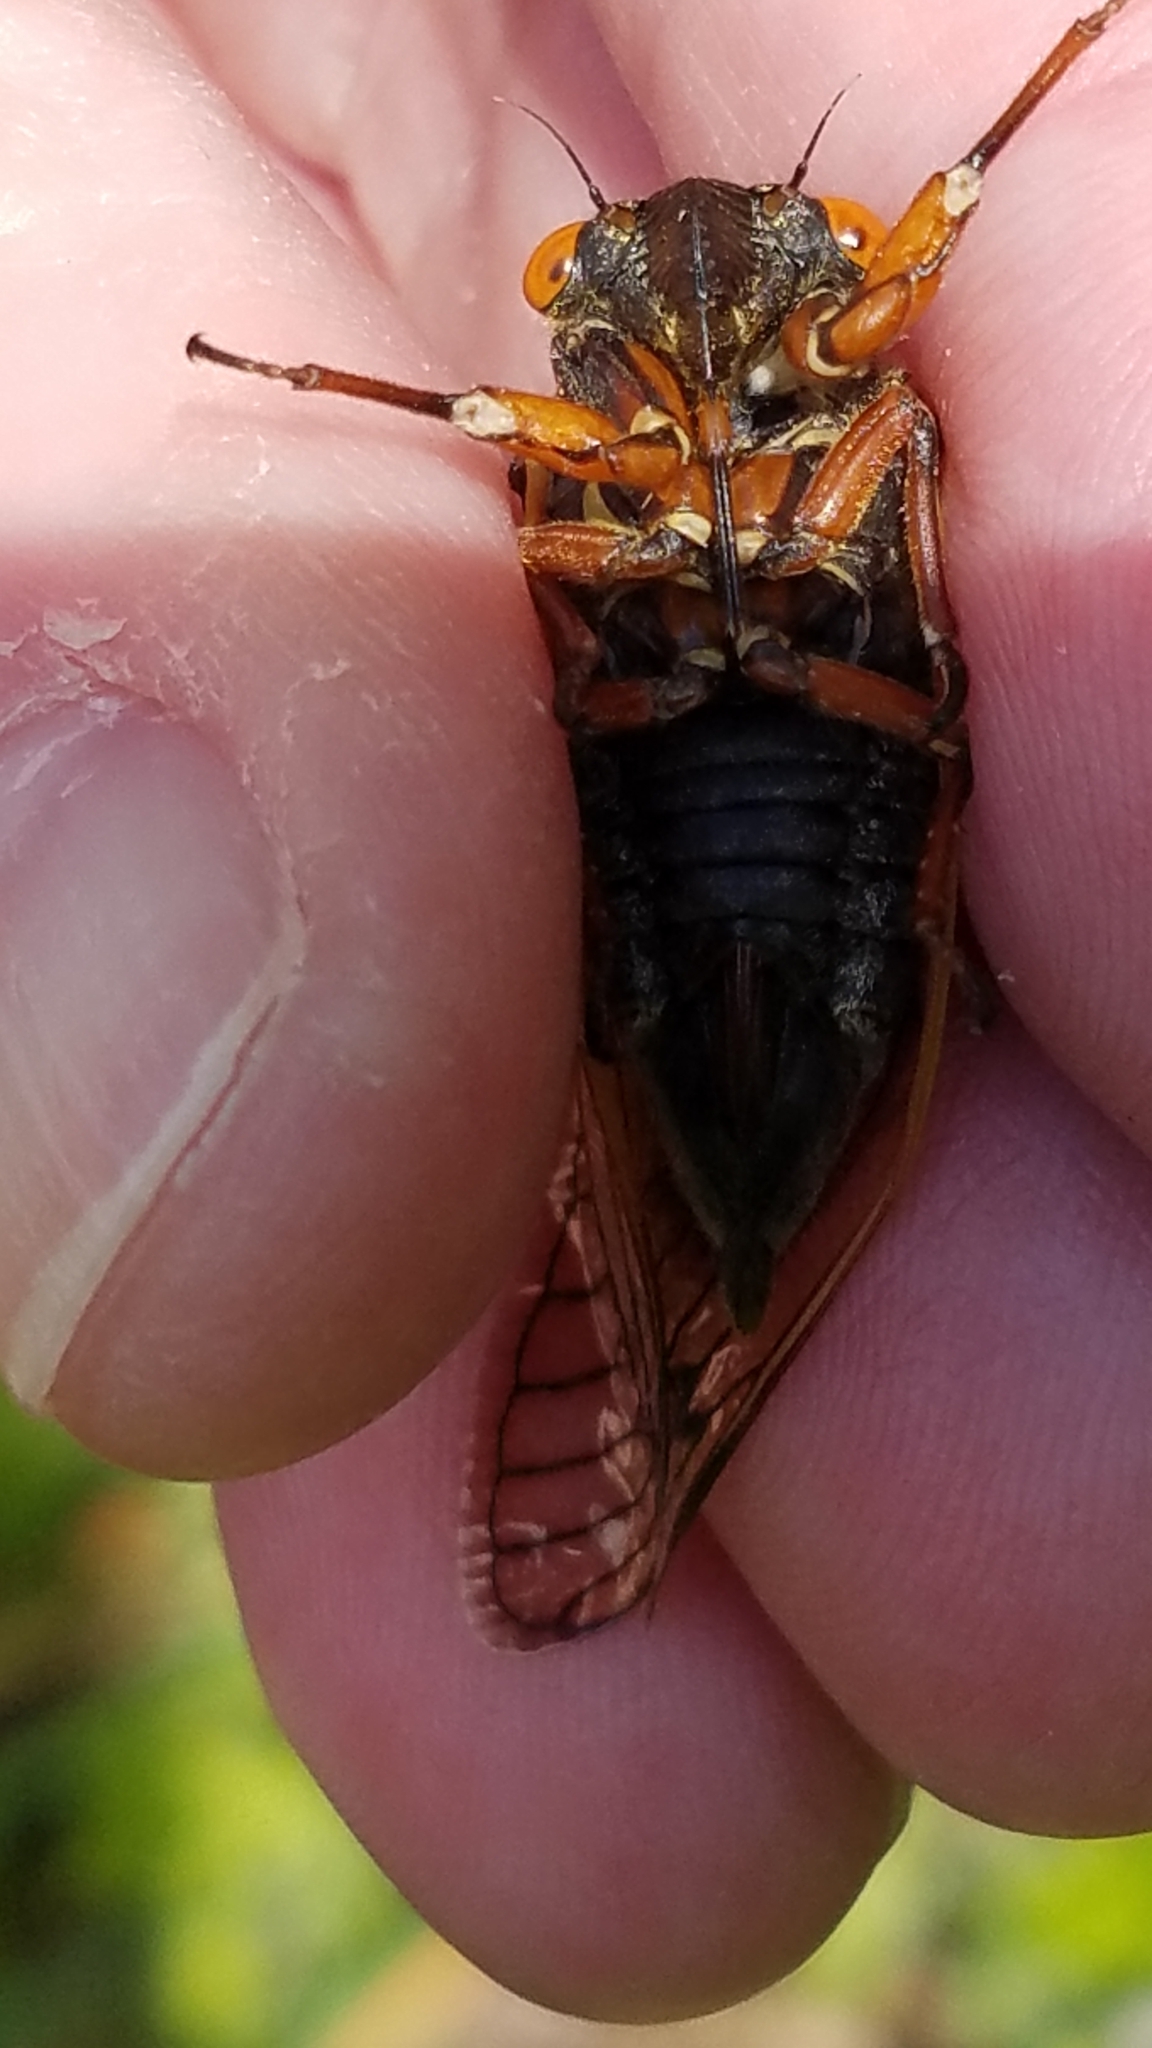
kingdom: Animalia
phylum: Arthropoda
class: Insecta
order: Hemiptera
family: Cicadidae
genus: Magicicada
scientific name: Magicicada cassini
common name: Cassin's 17-year cicada
